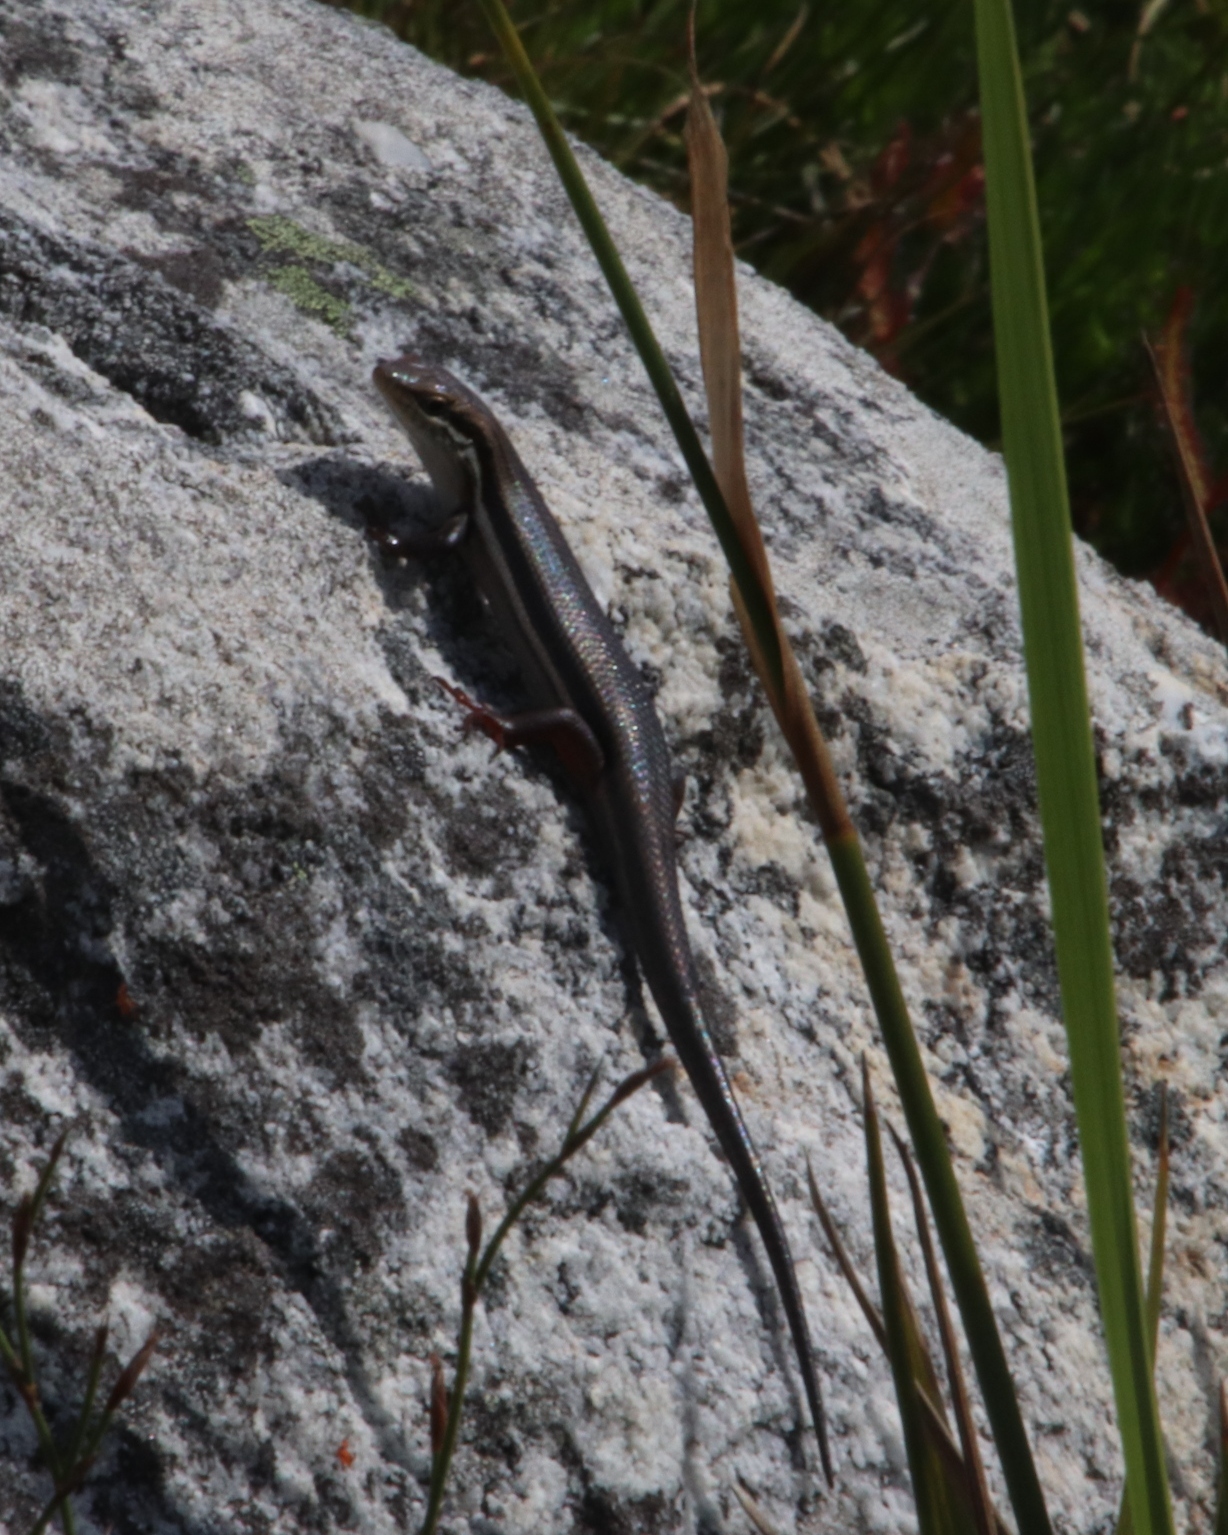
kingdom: Animalia
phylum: Chordata
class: Squamata
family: Scincidae
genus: Trachylepis
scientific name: Trachylepis homalocephala
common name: Red-sided skink
